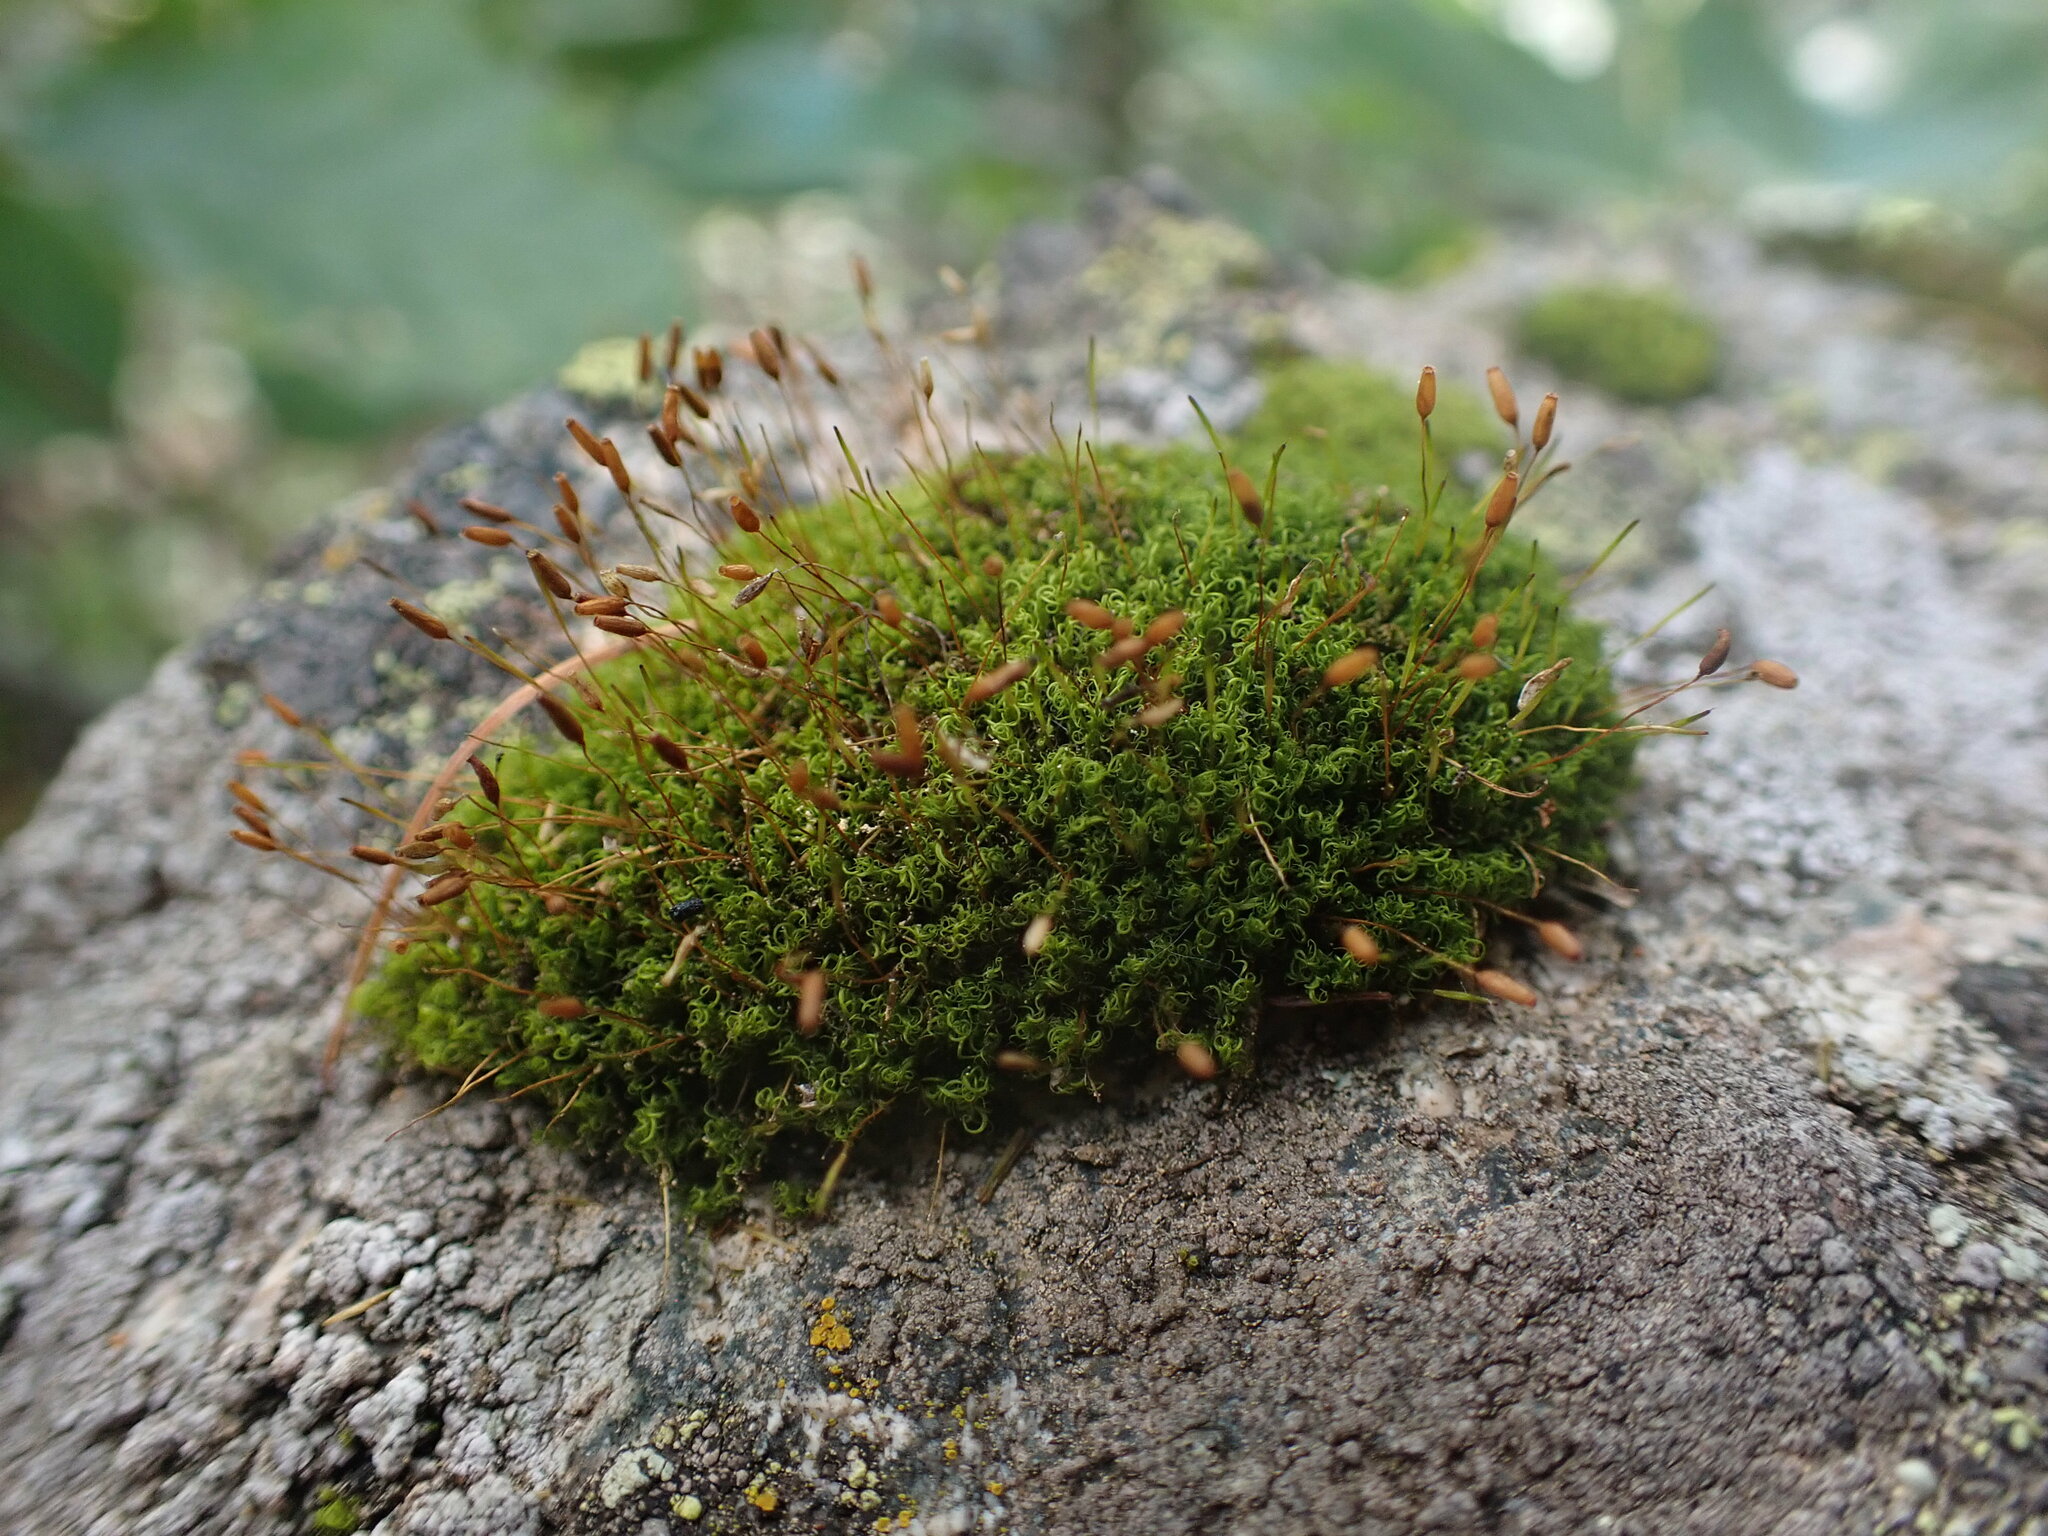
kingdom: Plantae
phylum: Bryophyta
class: Bryopsida
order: Scouleriales
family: Hymenolomataceae
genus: Hymenoloma
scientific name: Hymenoloma crispulum
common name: Mountain pincushion
